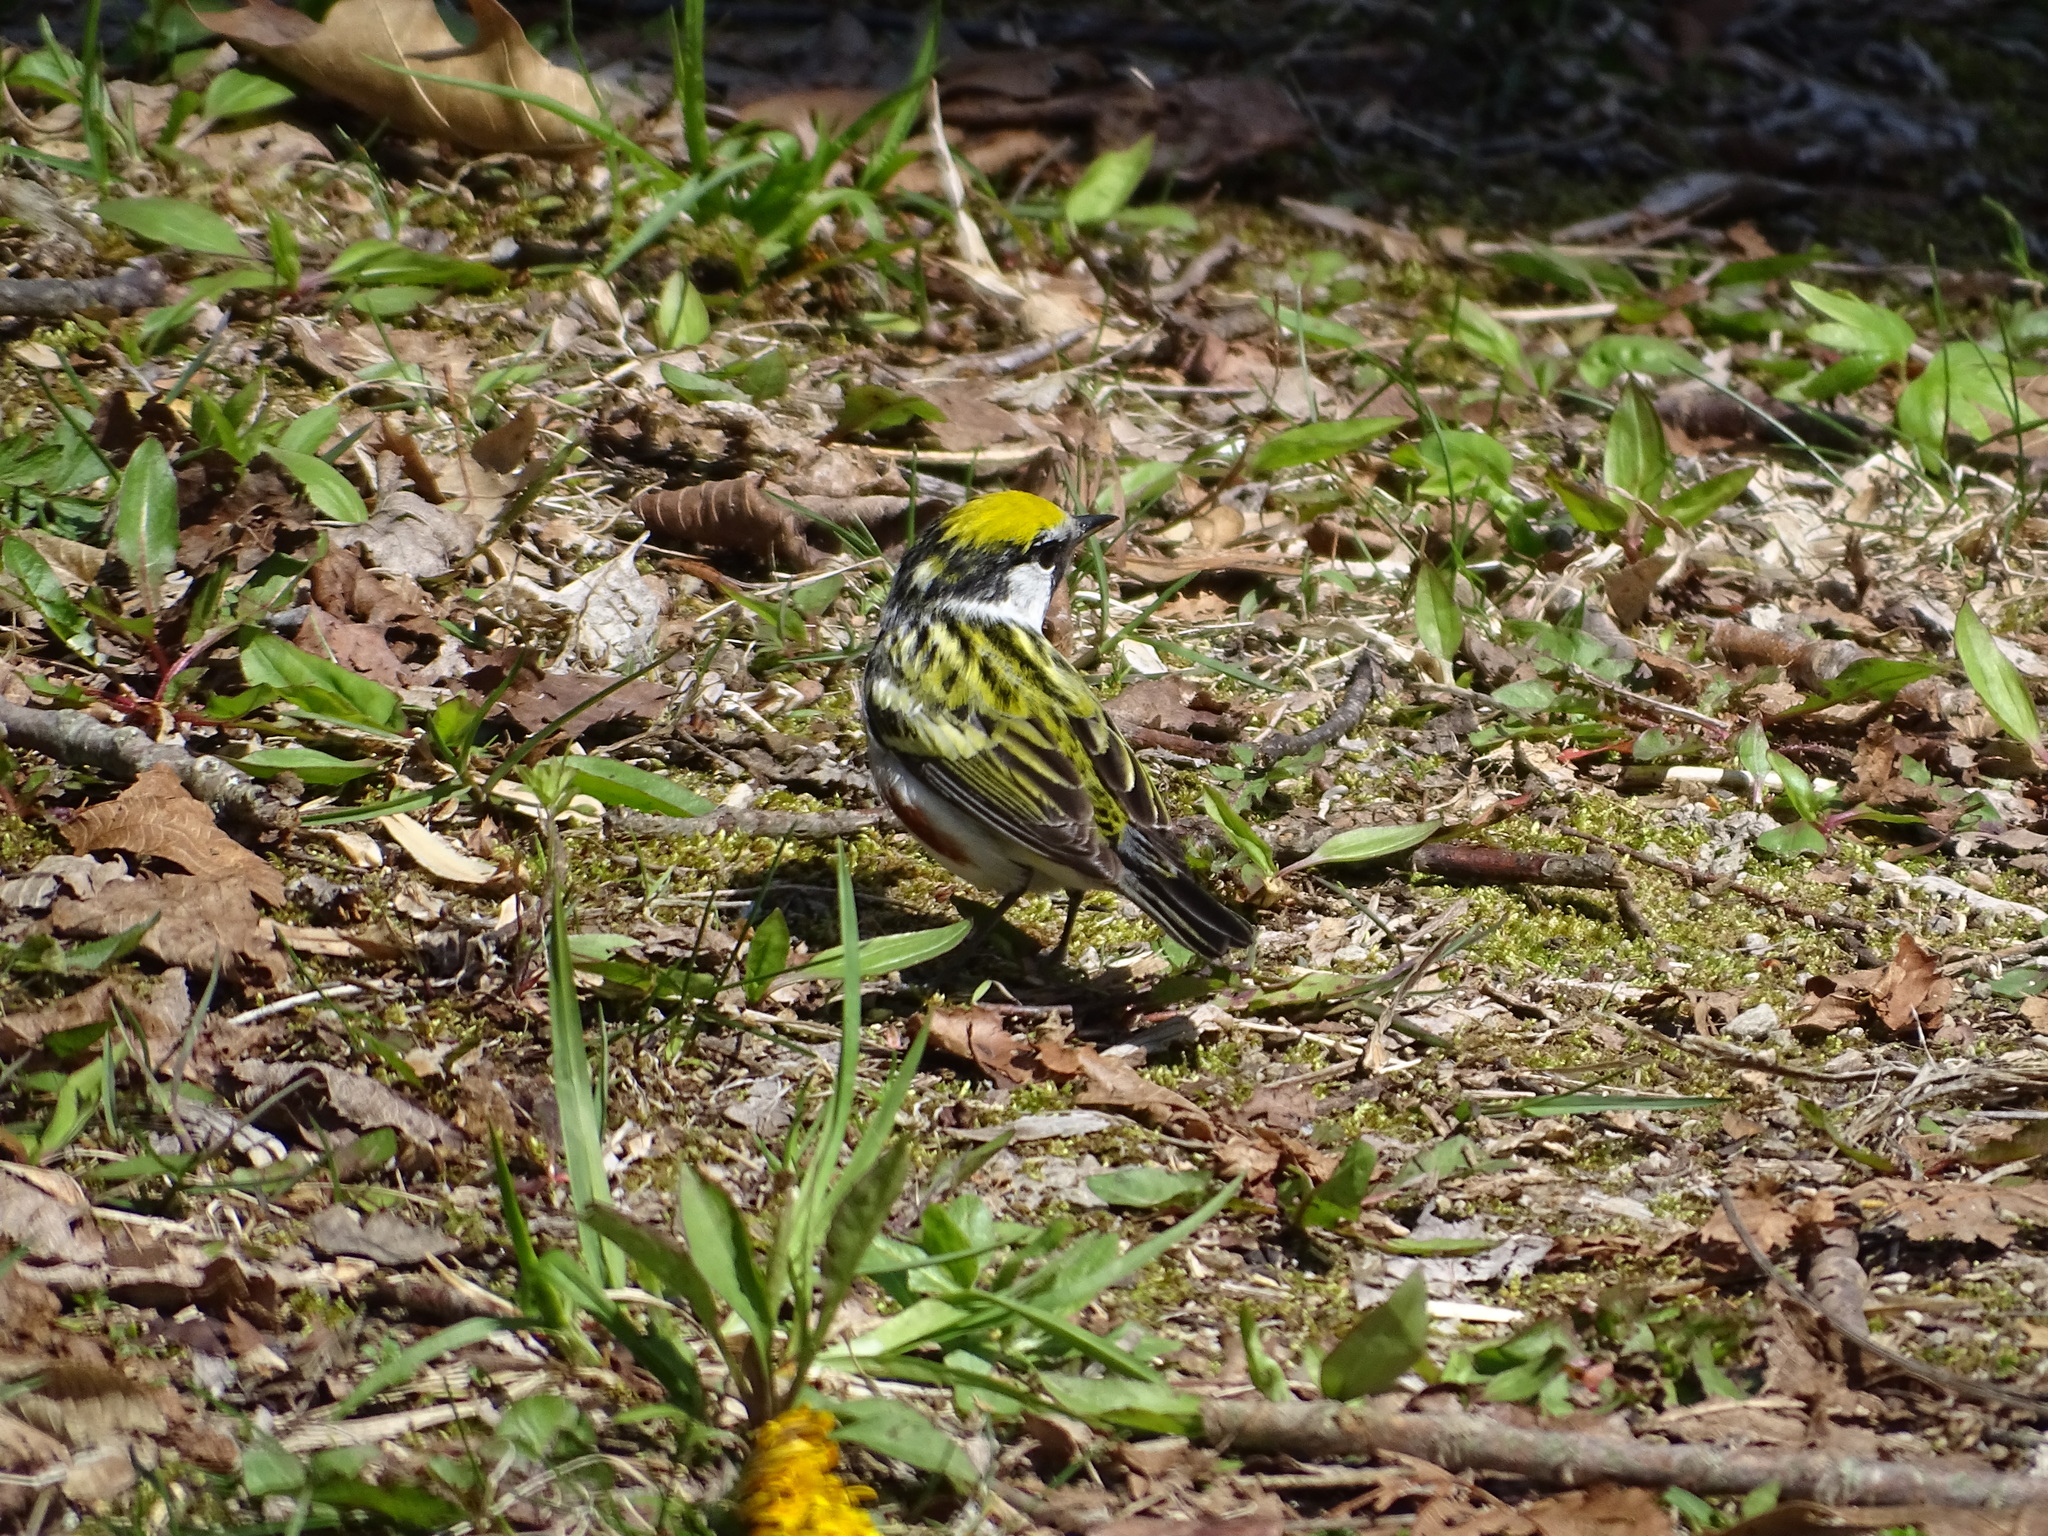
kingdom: Animalia
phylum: Chordata
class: Aves
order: Passeriformes
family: Parulidae
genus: Setophaga
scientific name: Setophaga pensylvanica
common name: Chestnut-sided warbler
